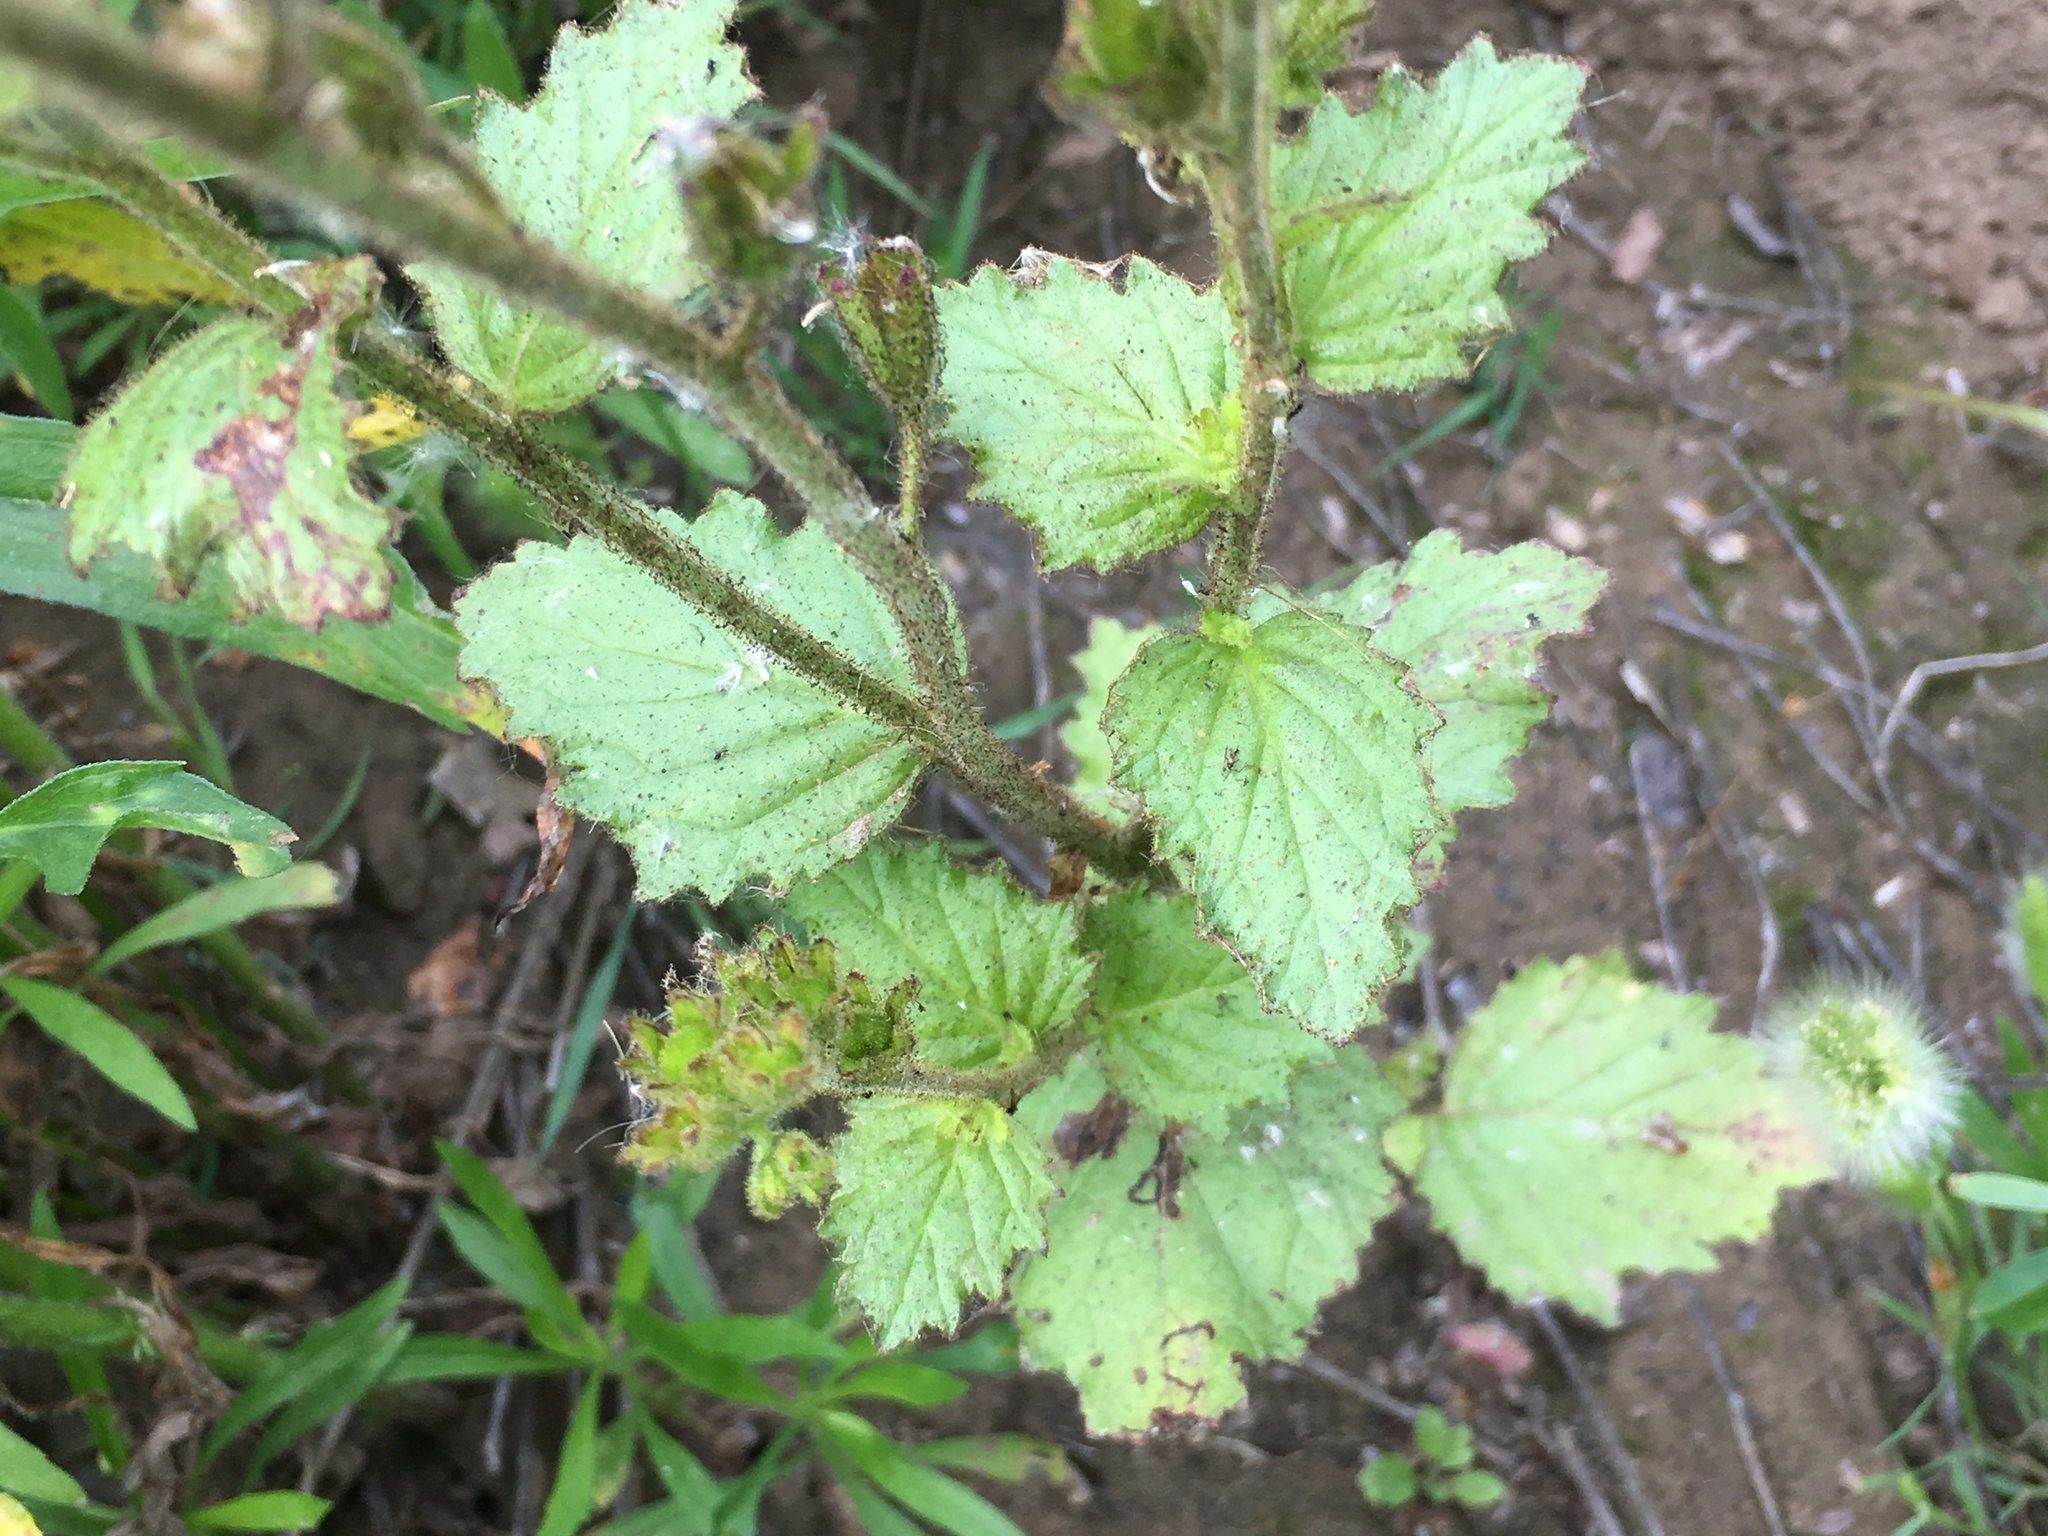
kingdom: Plantae
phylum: Tracheophyta
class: Magnoliopsida
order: Boraginales
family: Hydrophyllaceae
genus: Phacelia
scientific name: Phacelia viscida
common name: Sticky phacelia
